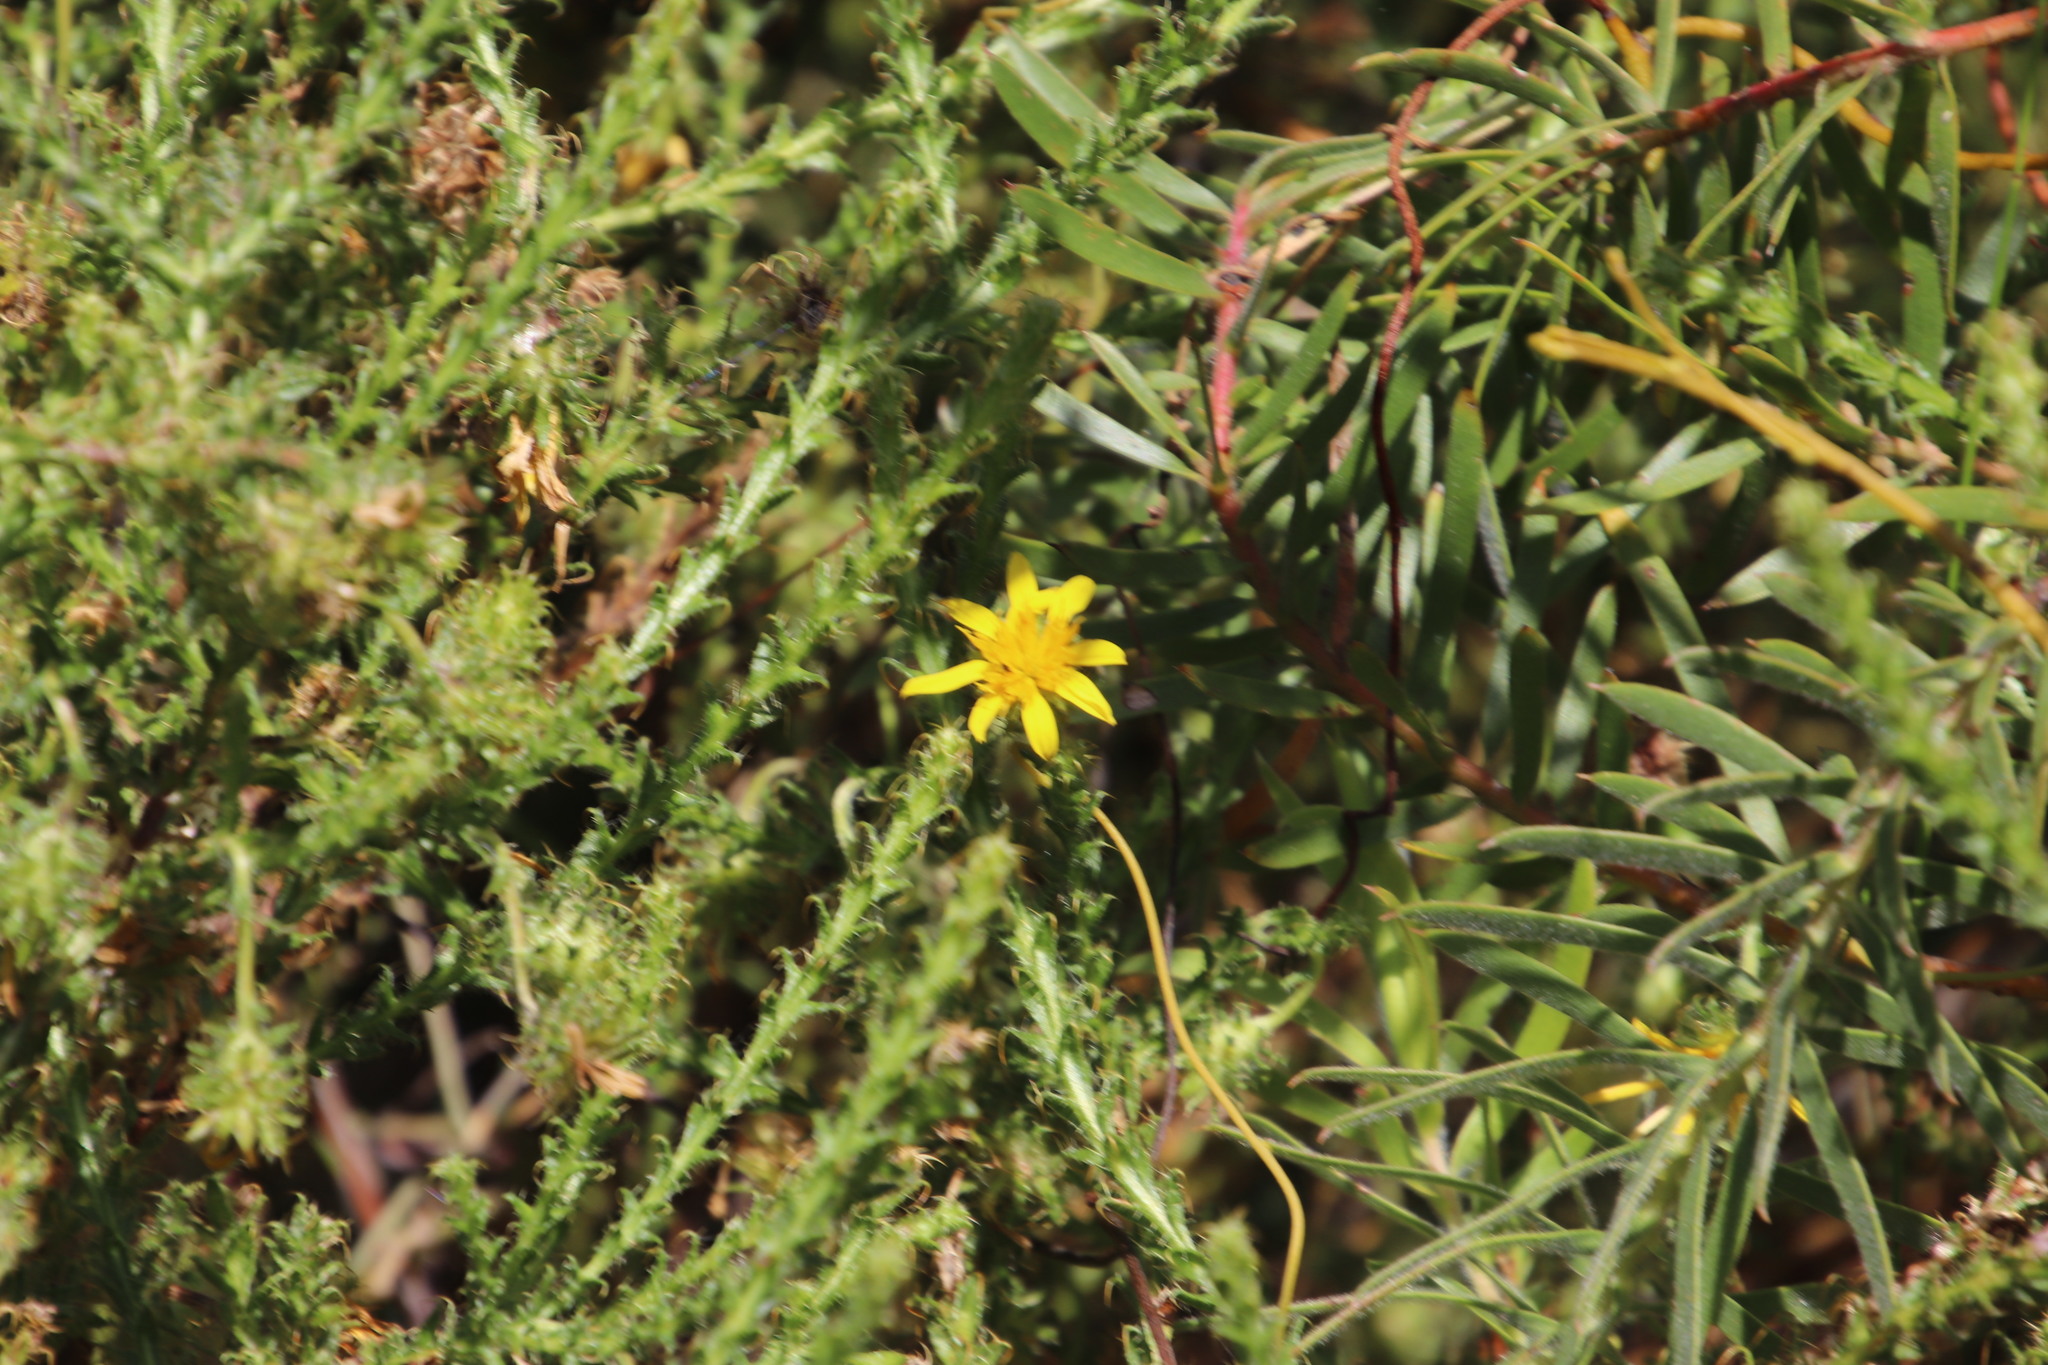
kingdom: Plantae
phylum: Tracheophyta
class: Magnoliopsida
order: Asterales
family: Asteraceae
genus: Cullumia
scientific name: Cullumia reticulata
